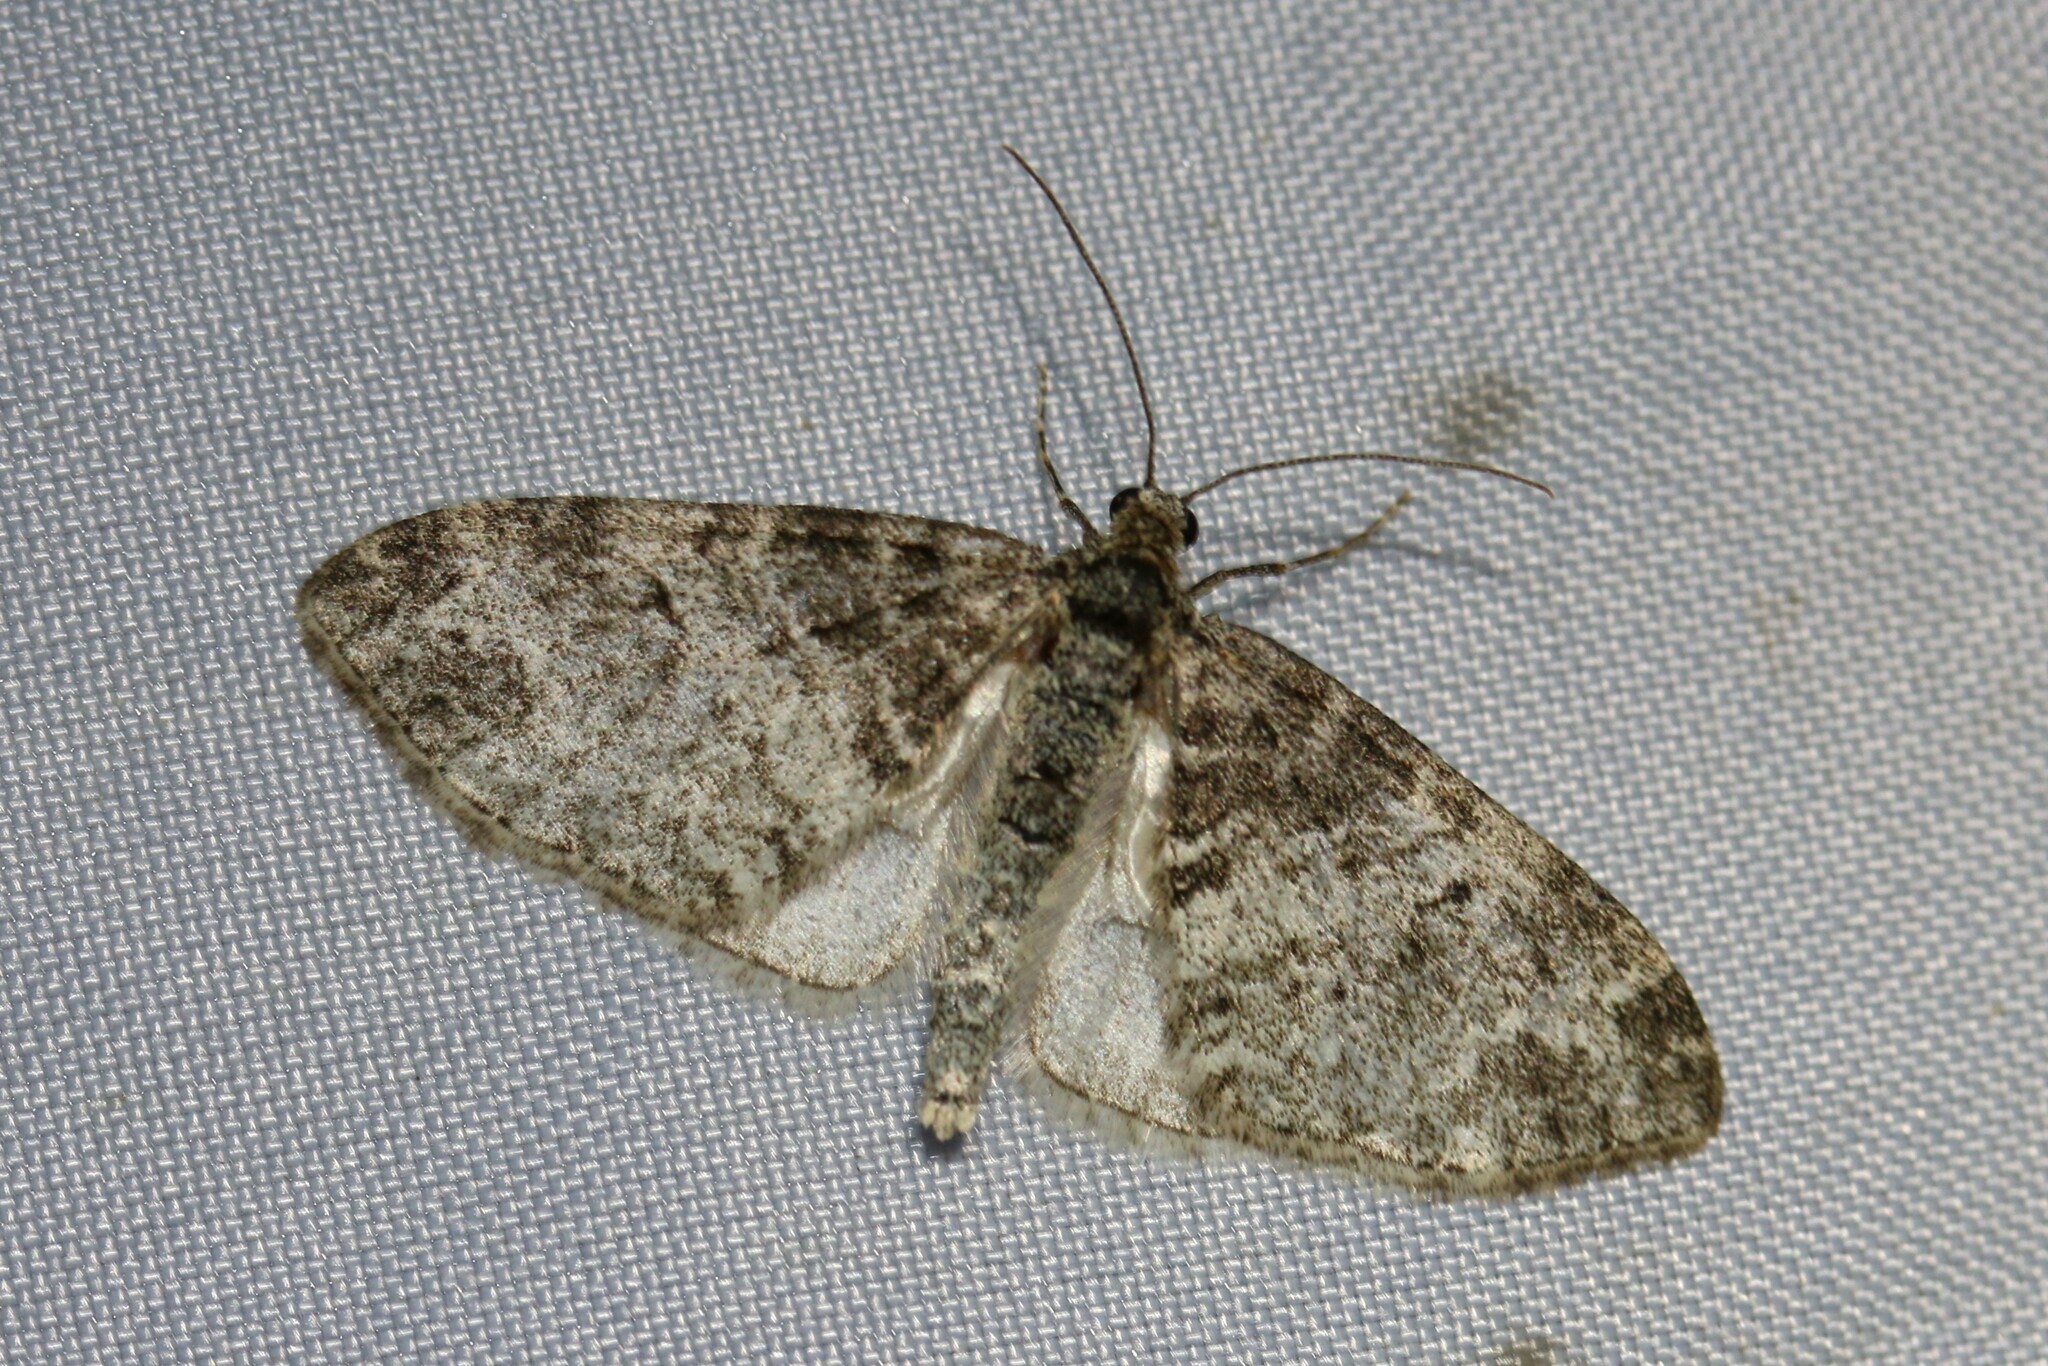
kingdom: Animalia
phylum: Arthropoda
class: Insecta
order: Lepidoptera
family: Geometridae
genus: Lobophora
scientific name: Lobophora halterata
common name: Seraphim
